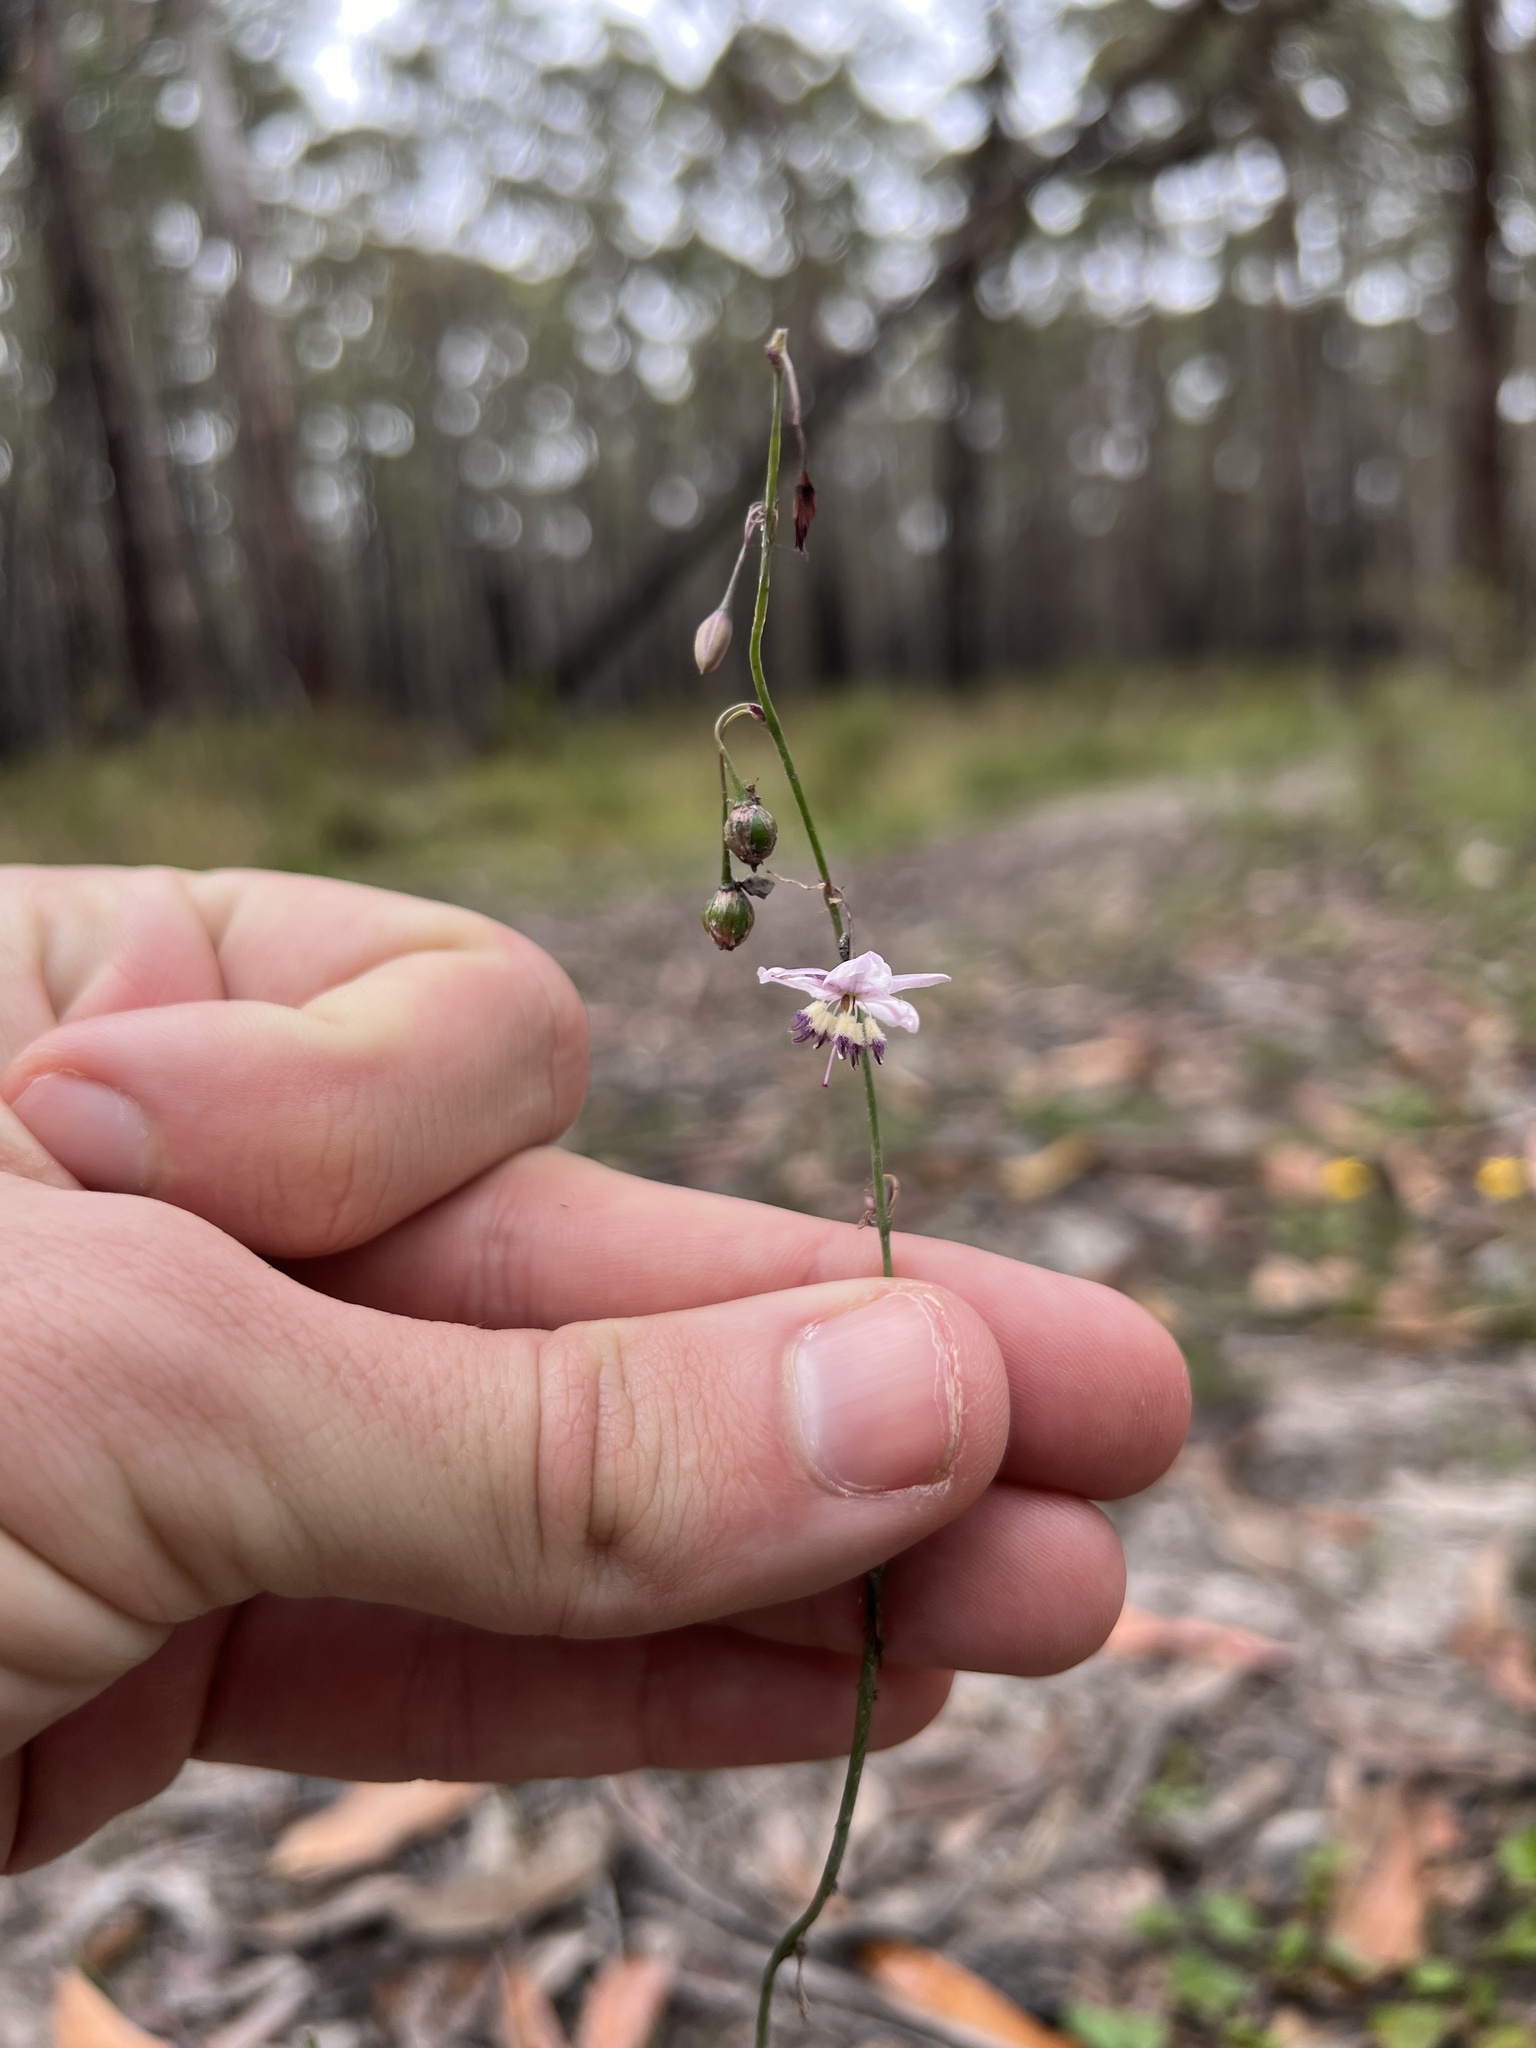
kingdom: Plantae
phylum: Tracheophyta
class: Liliopsida
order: Asparagales
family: Asparagaceae
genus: Arthropodium
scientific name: Arthropodium milleflorum
